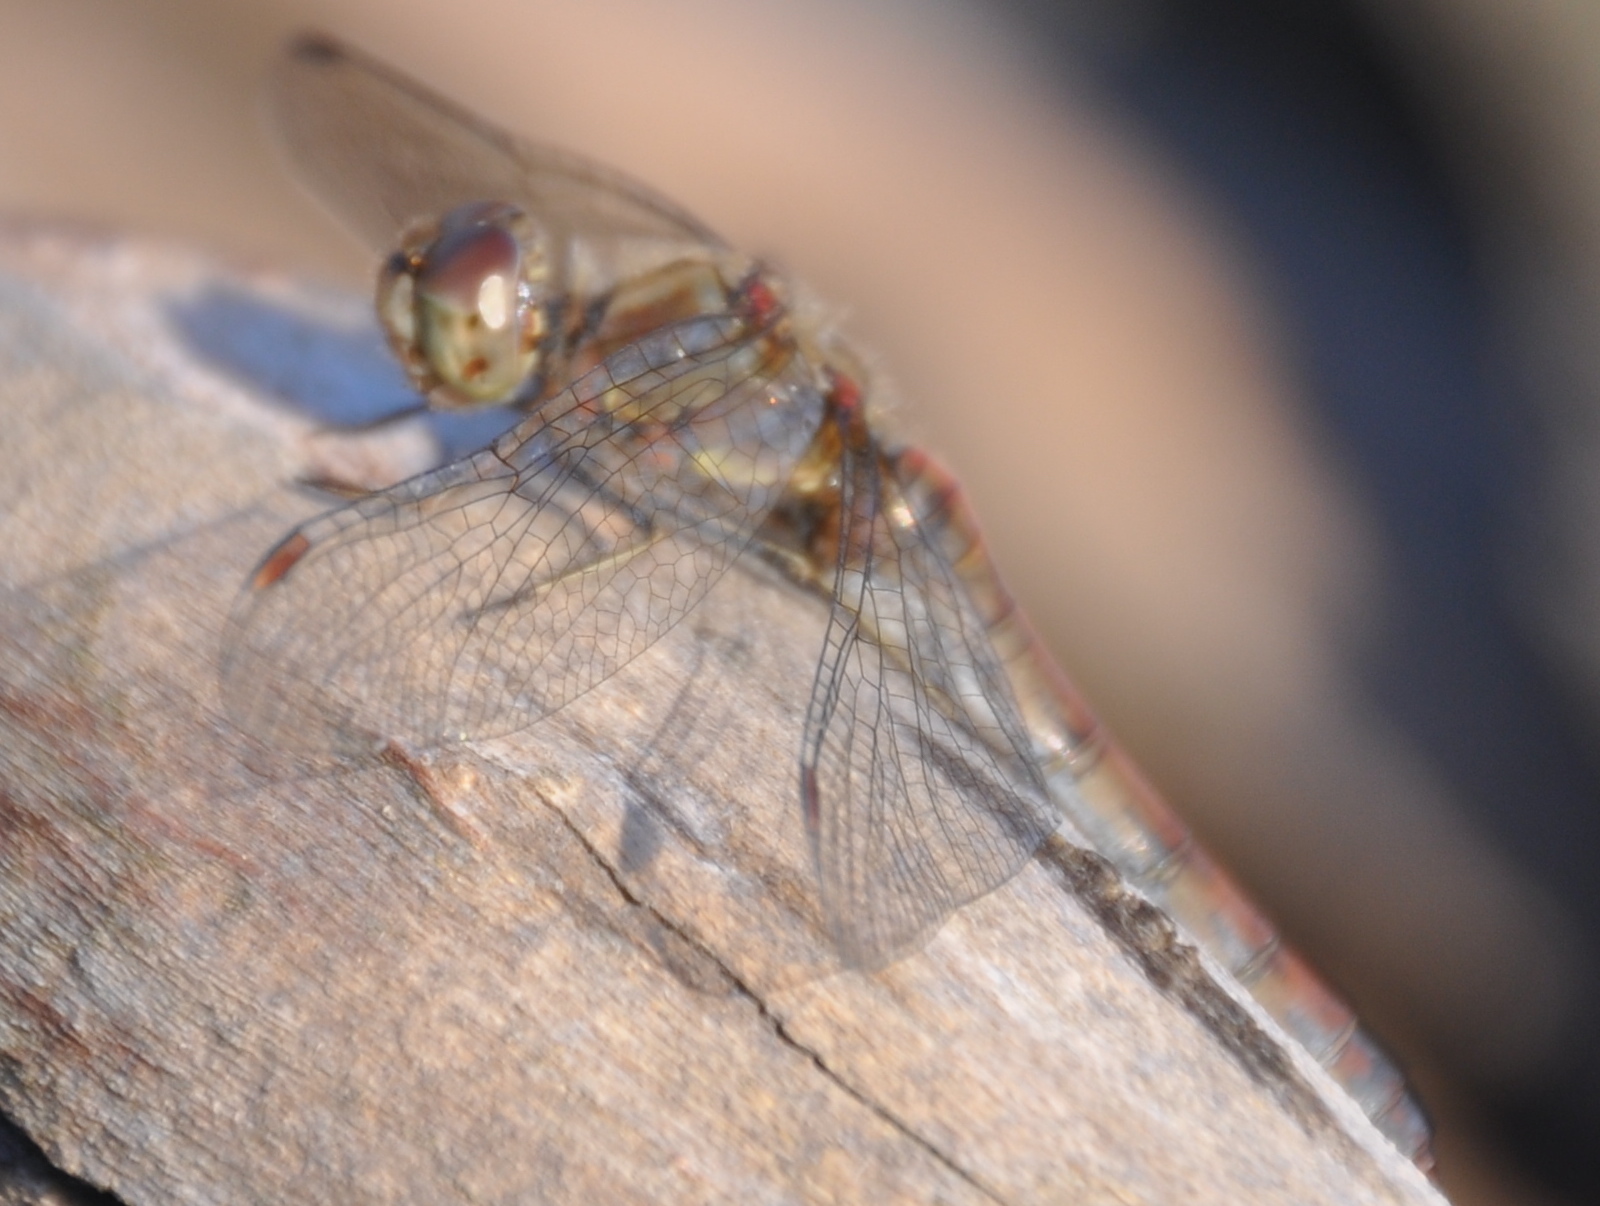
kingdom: Animalia
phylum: Arthropoda
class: Insecta
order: Odonata
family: Libellulidae
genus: Sympetrum
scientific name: Sympetrum striolatum
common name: Common darter
